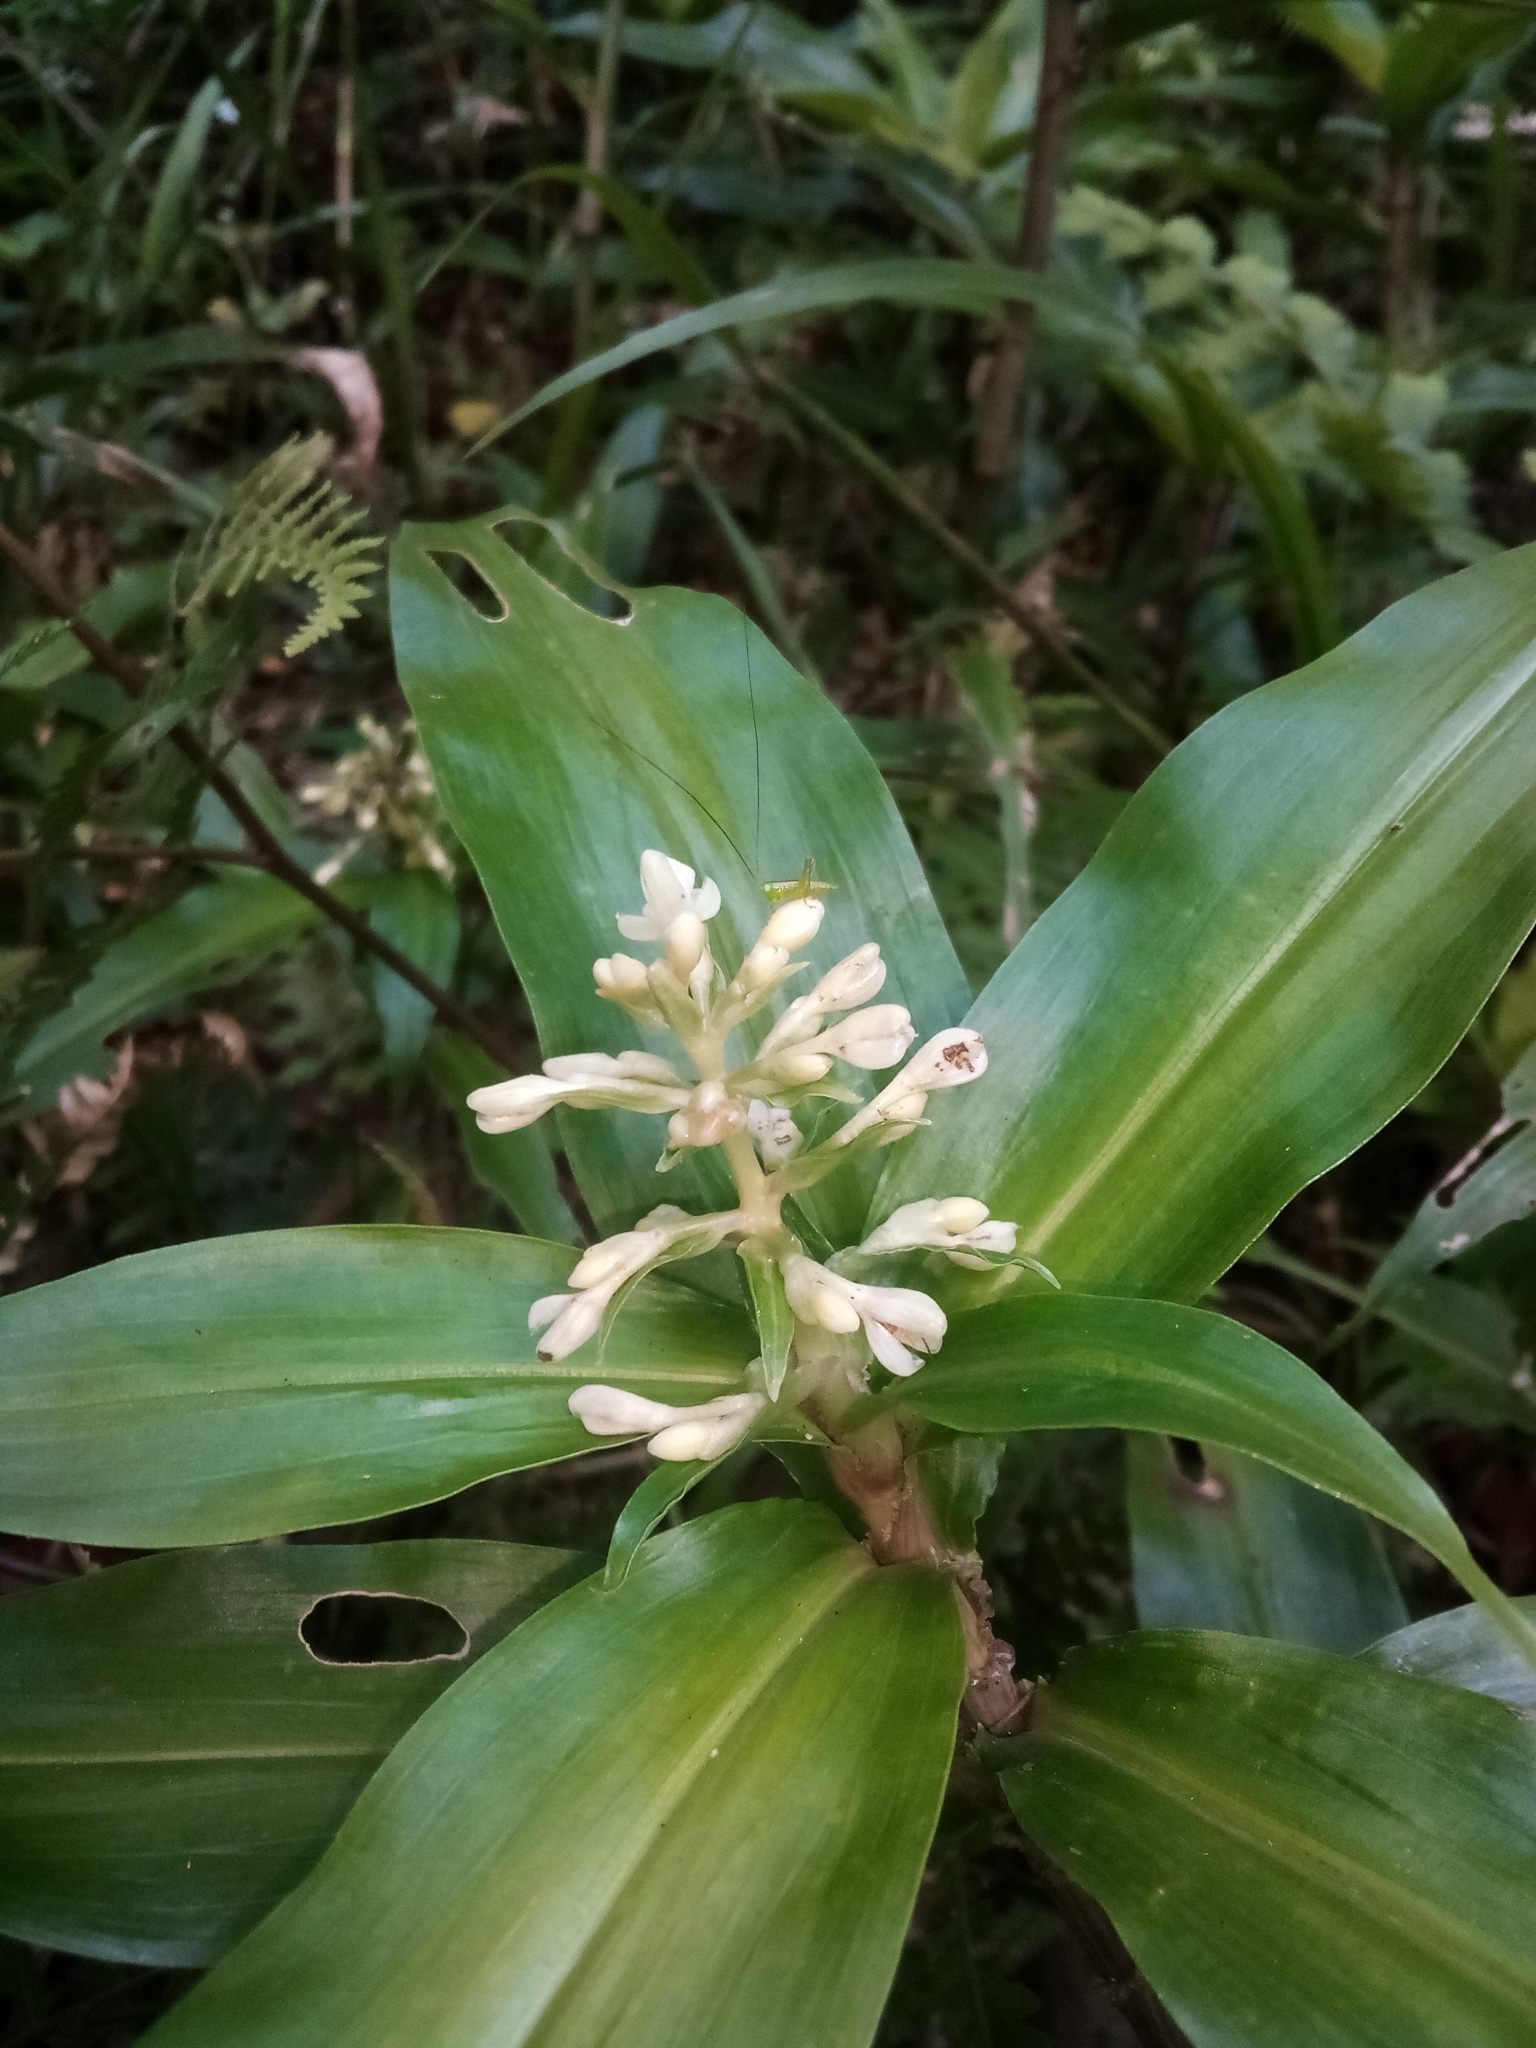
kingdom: Plantae
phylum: Tracheophyta
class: Liliopsida
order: Commelinales
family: Commelinaceae
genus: Pollia
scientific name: Pollia crispata
